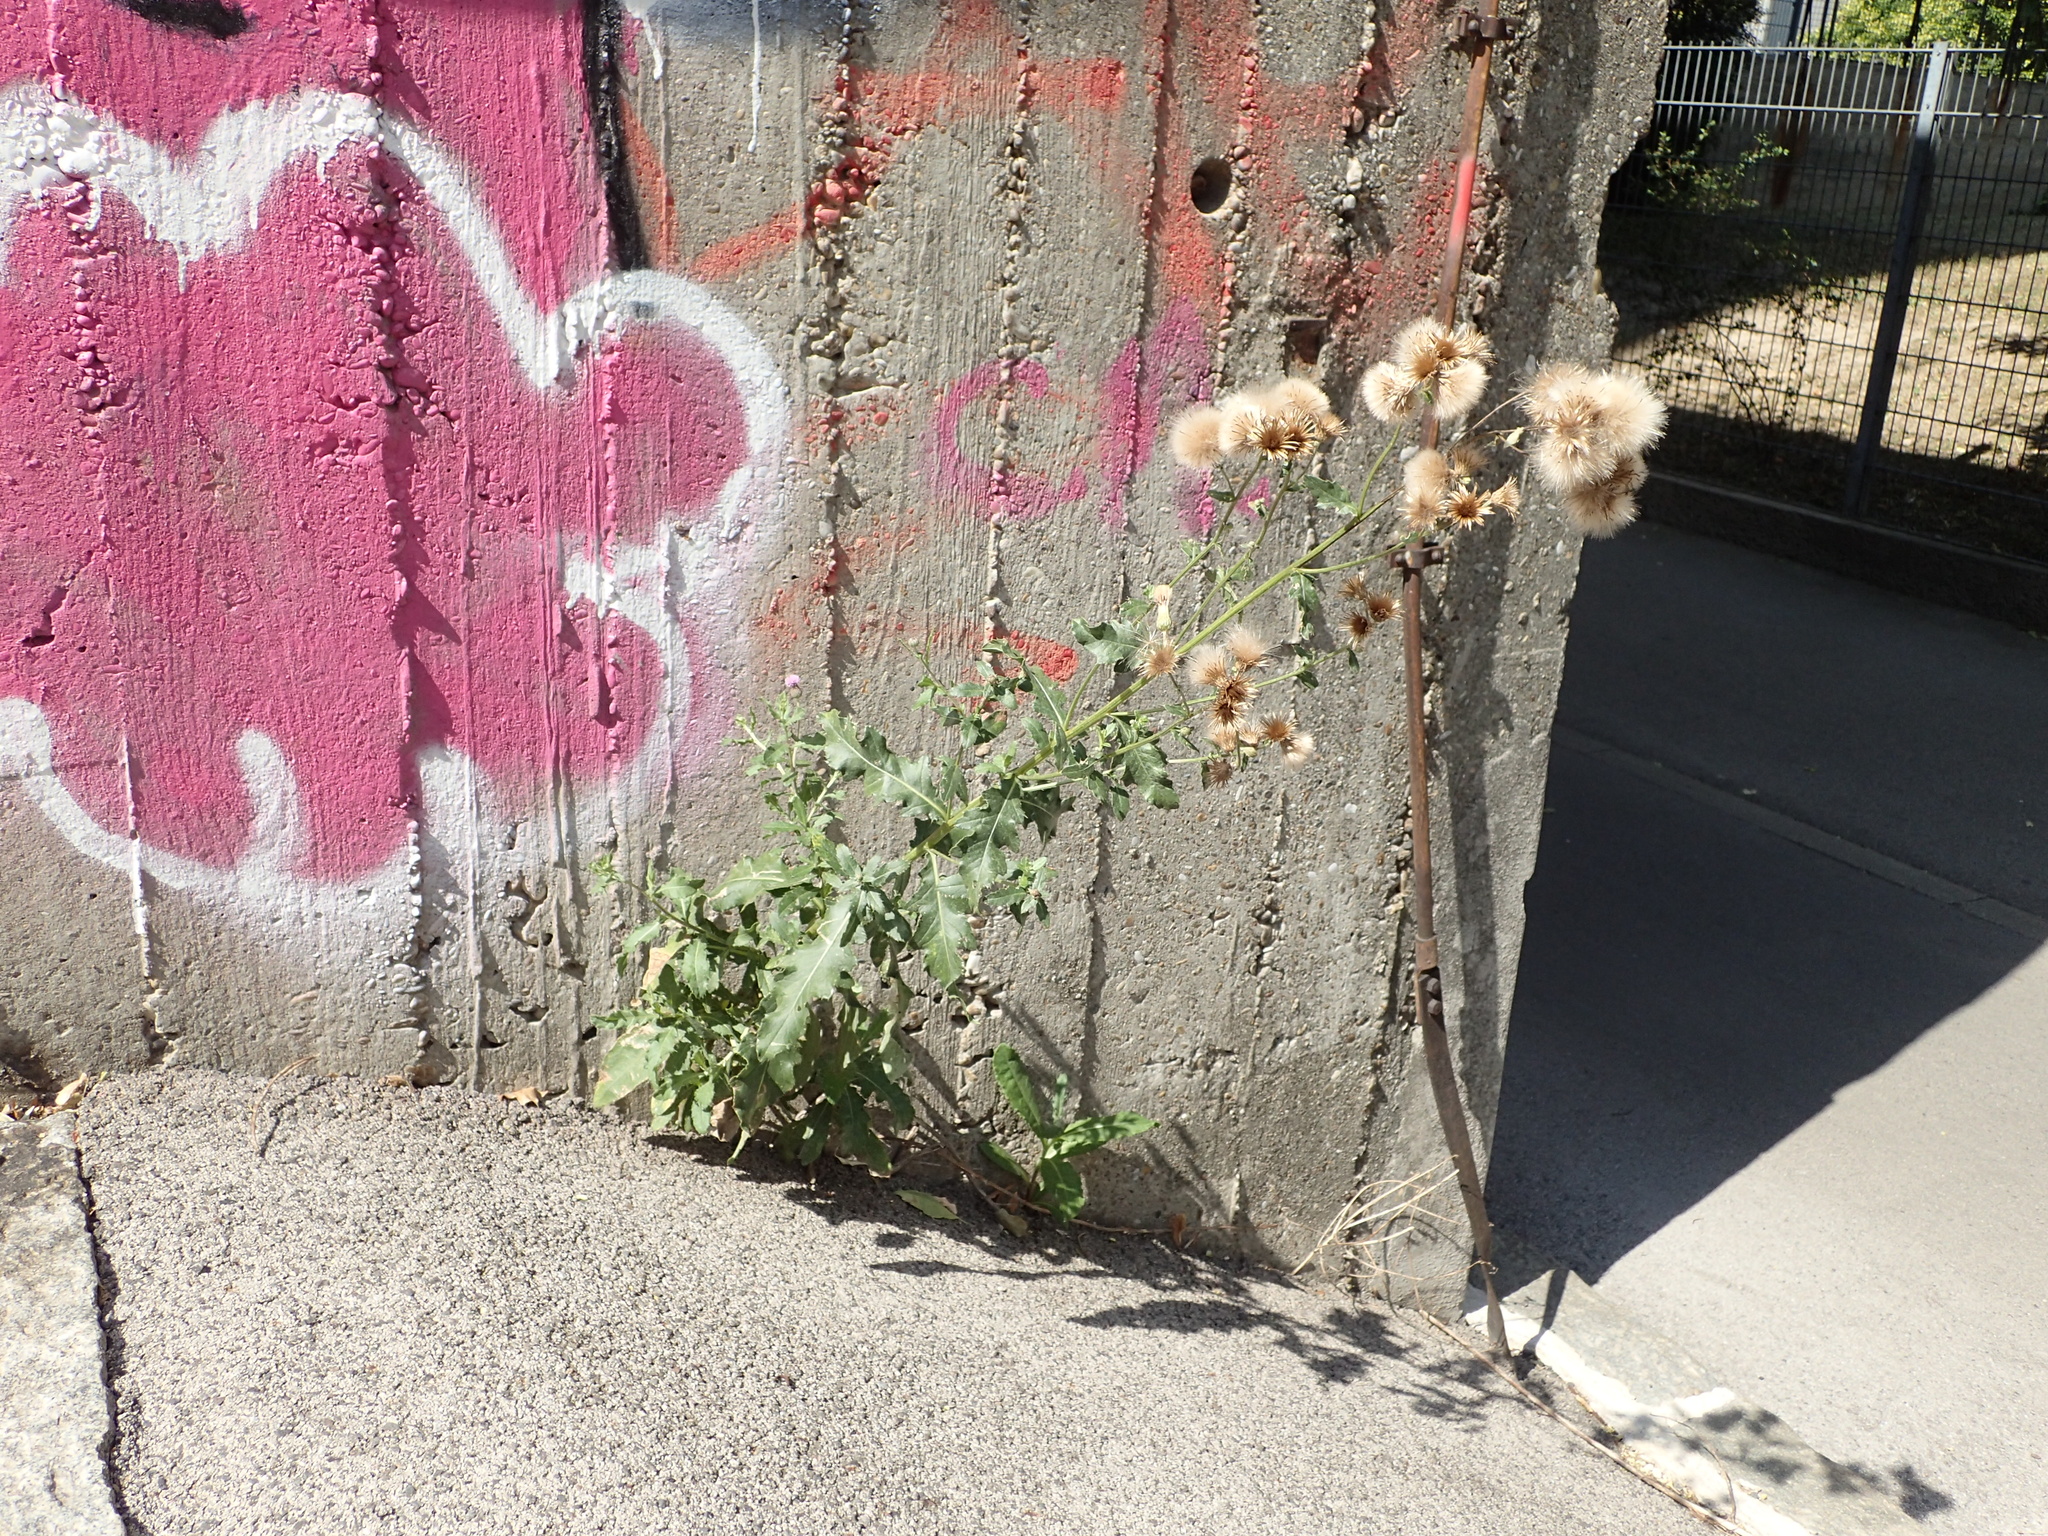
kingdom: Plantae
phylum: Tracheophyta
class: Magnoliopsida
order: Asterales
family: Asteraceae
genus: Cirsium
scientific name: Cirsium arvense
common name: Creeping thistle
